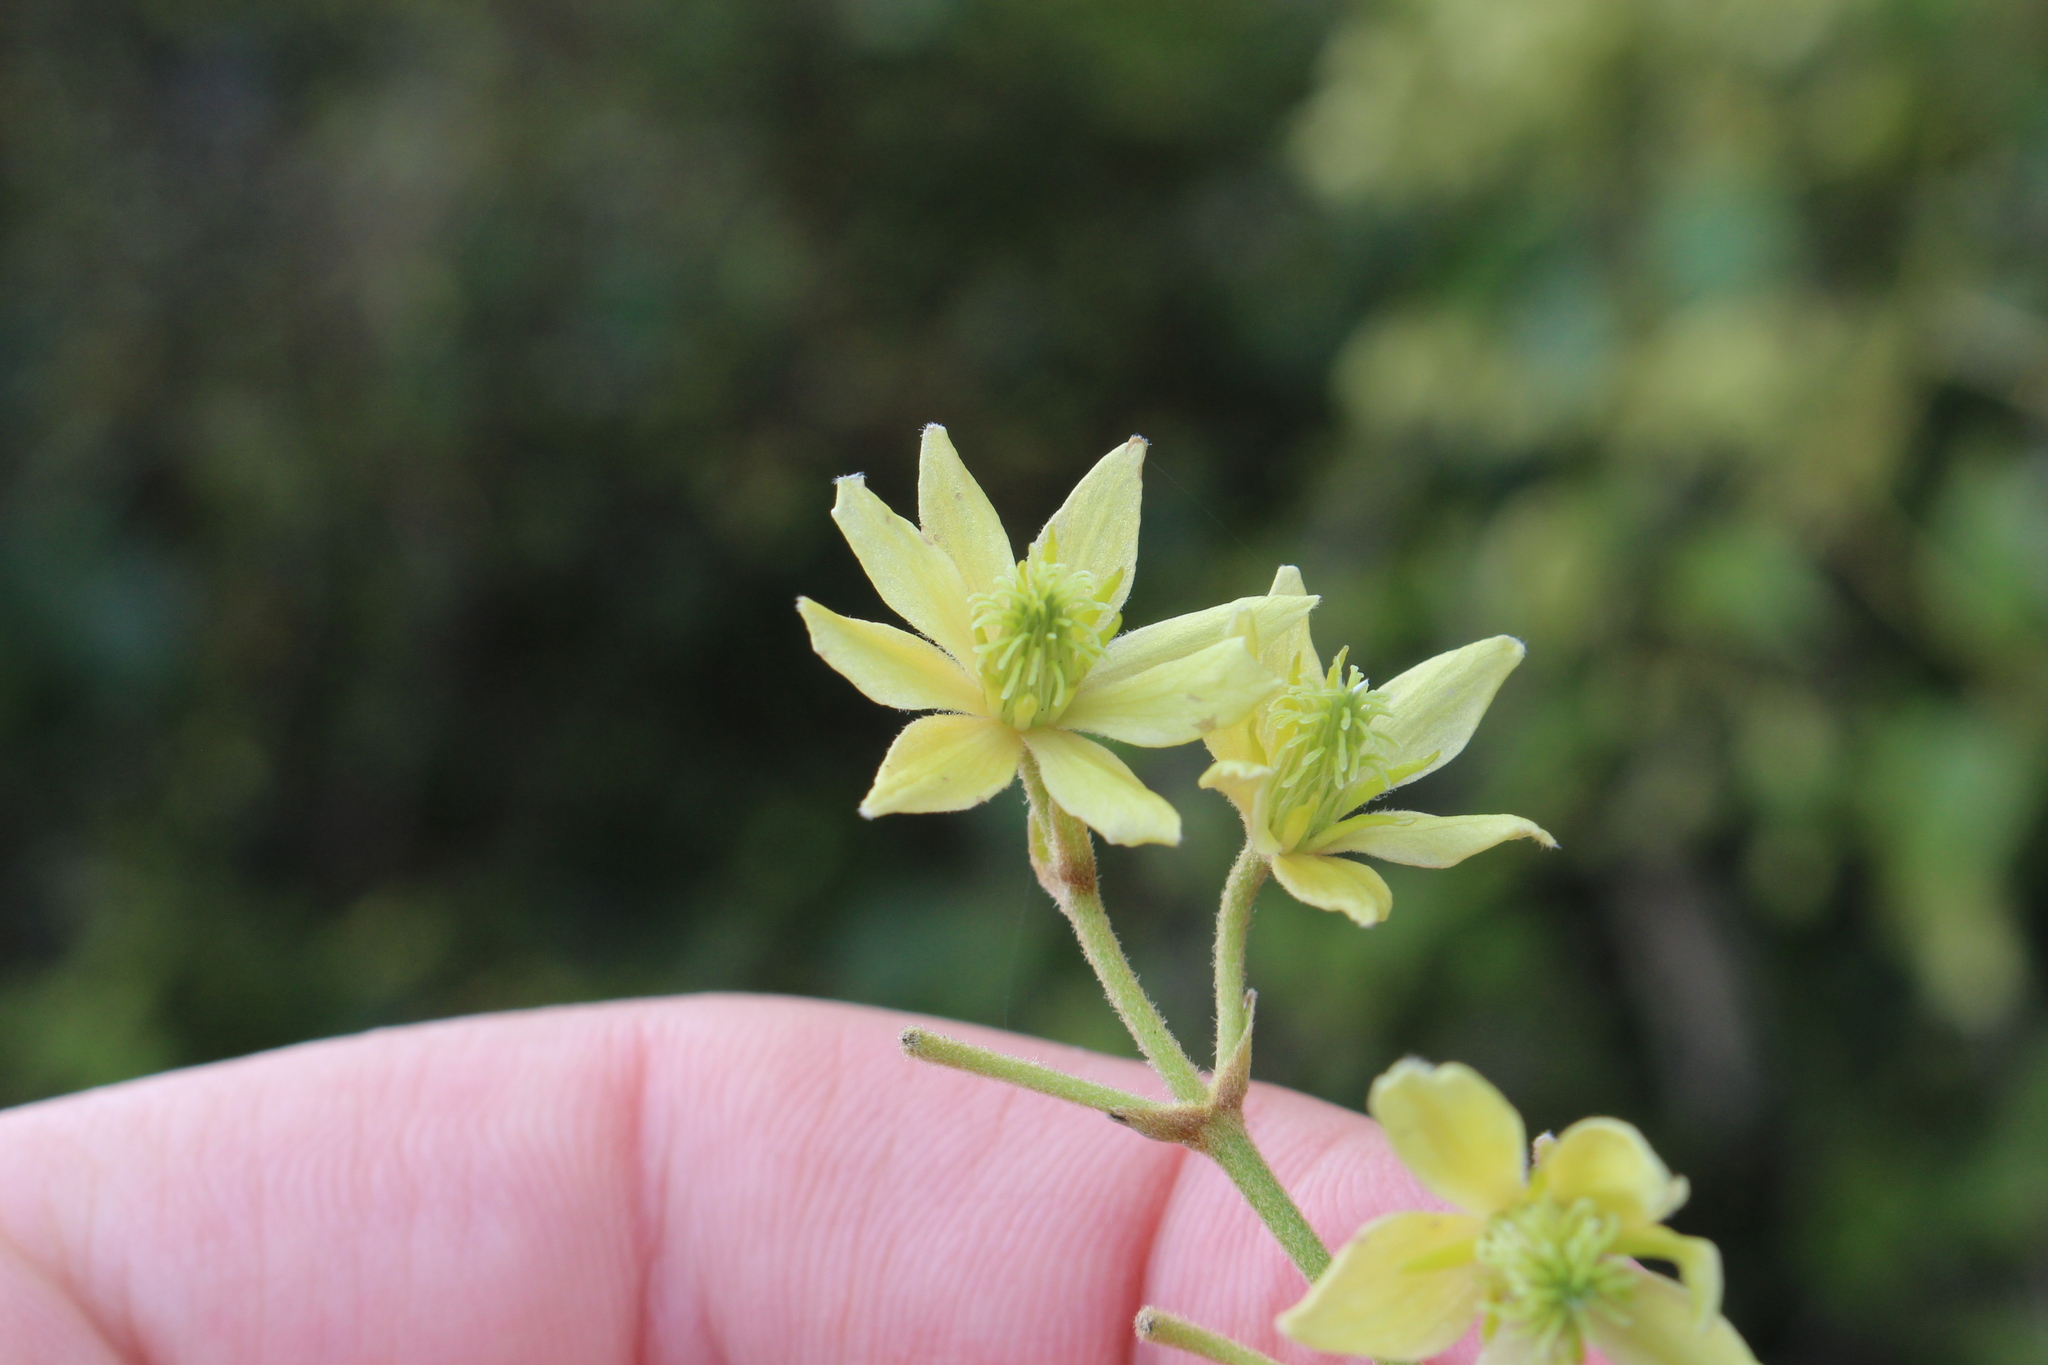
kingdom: Plantae
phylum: Tracheophyta
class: Magnoliopsida
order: Ranunculales
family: Ranunculaceae
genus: Clematis
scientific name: Clematis foetida
